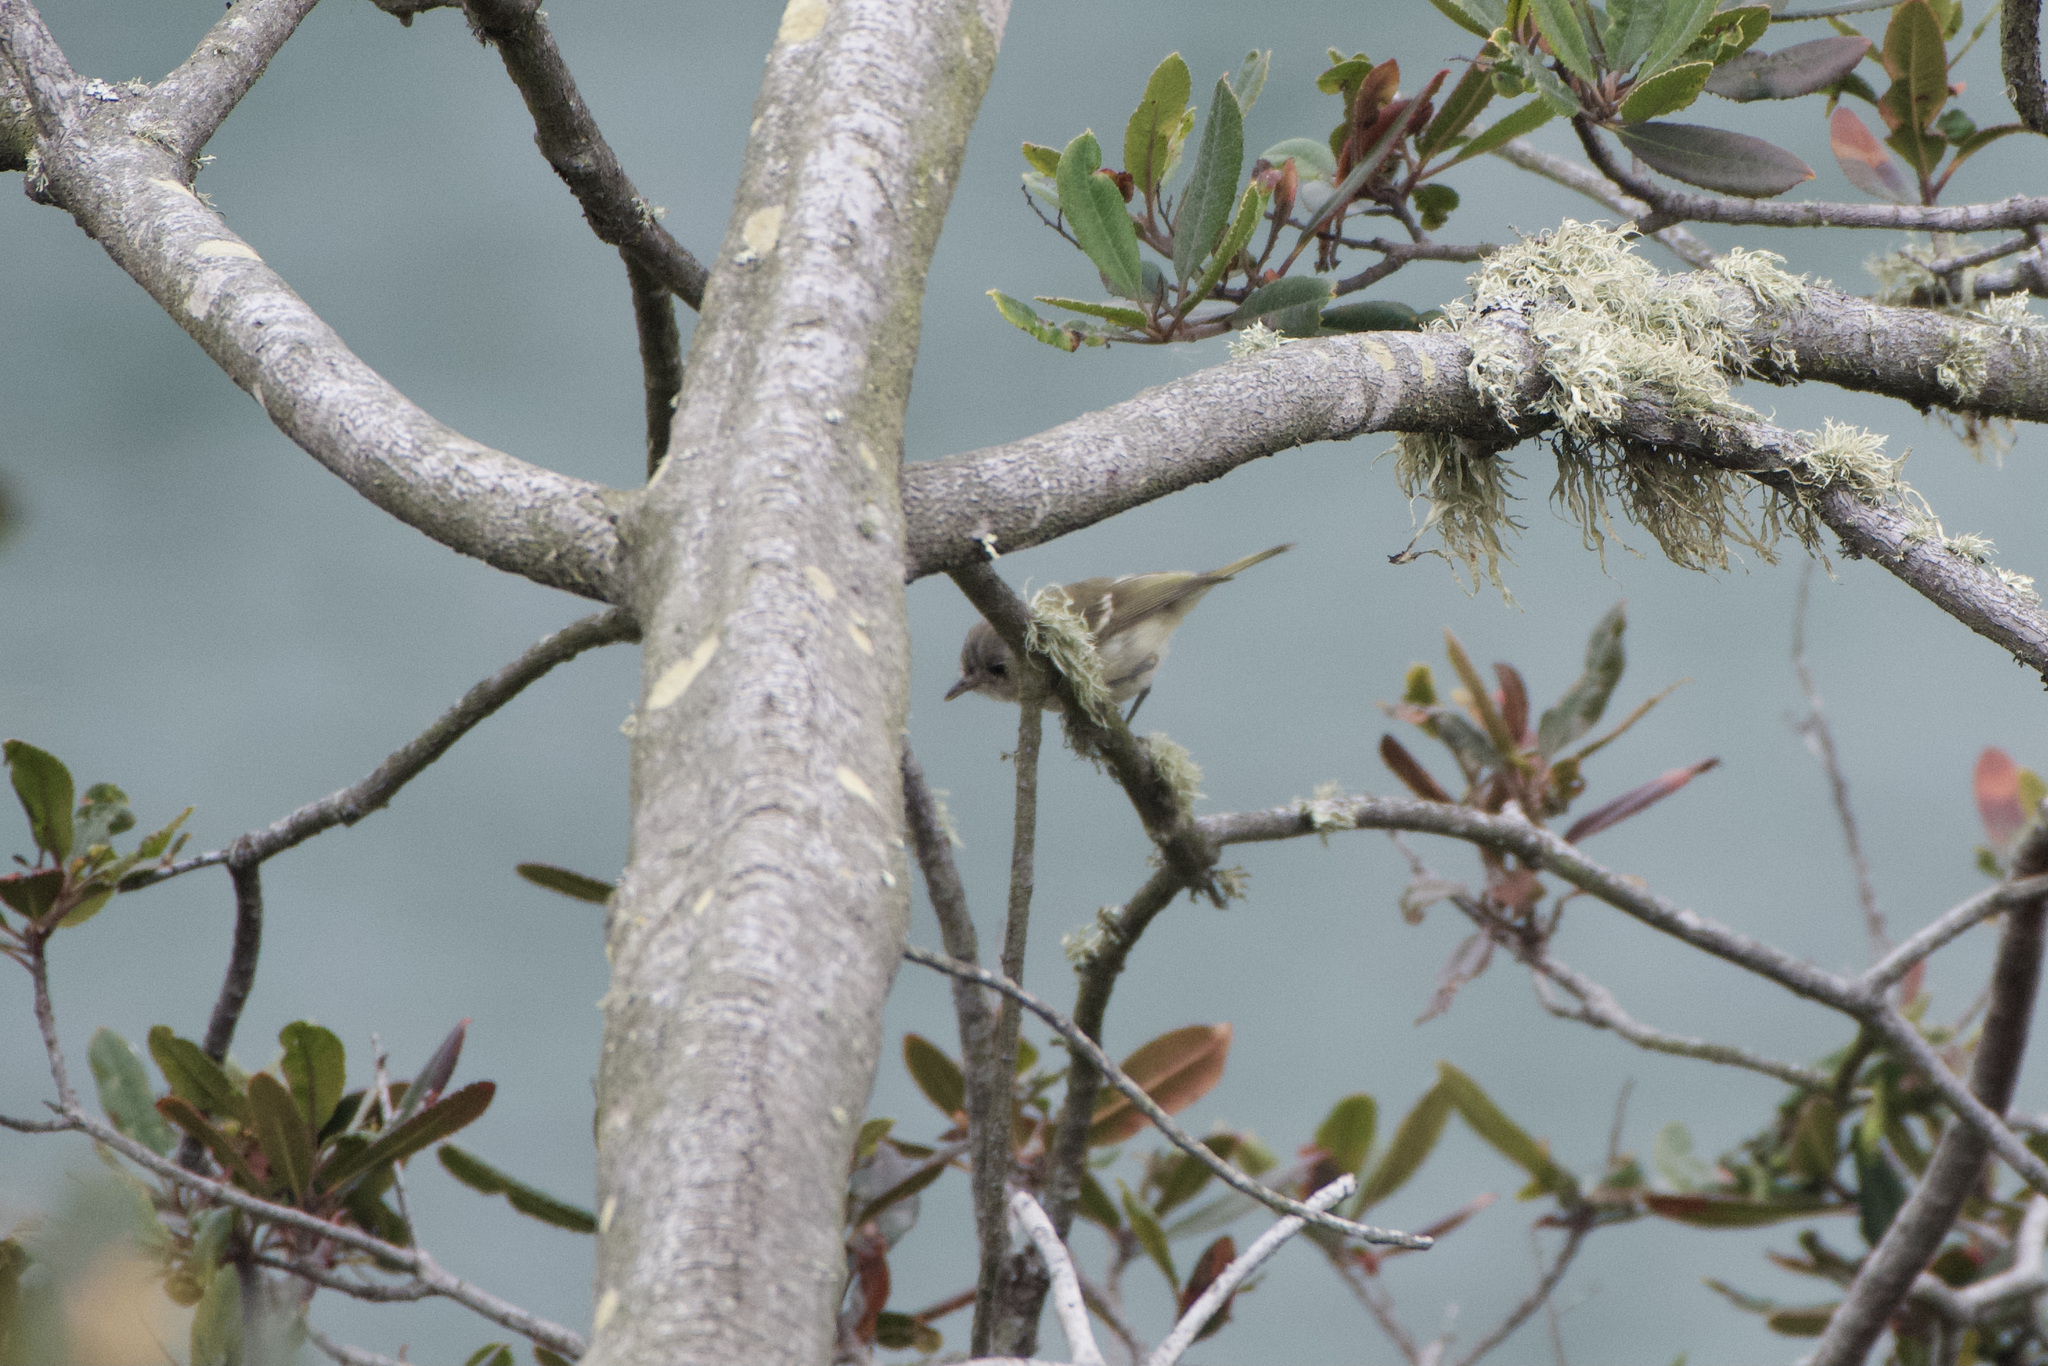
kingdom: Animalia
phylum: Chordata
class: Aves
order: Passeriformes
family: Vireonidae
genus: Vireo
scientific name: Vireo huttoni
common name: Hutton's vireo
